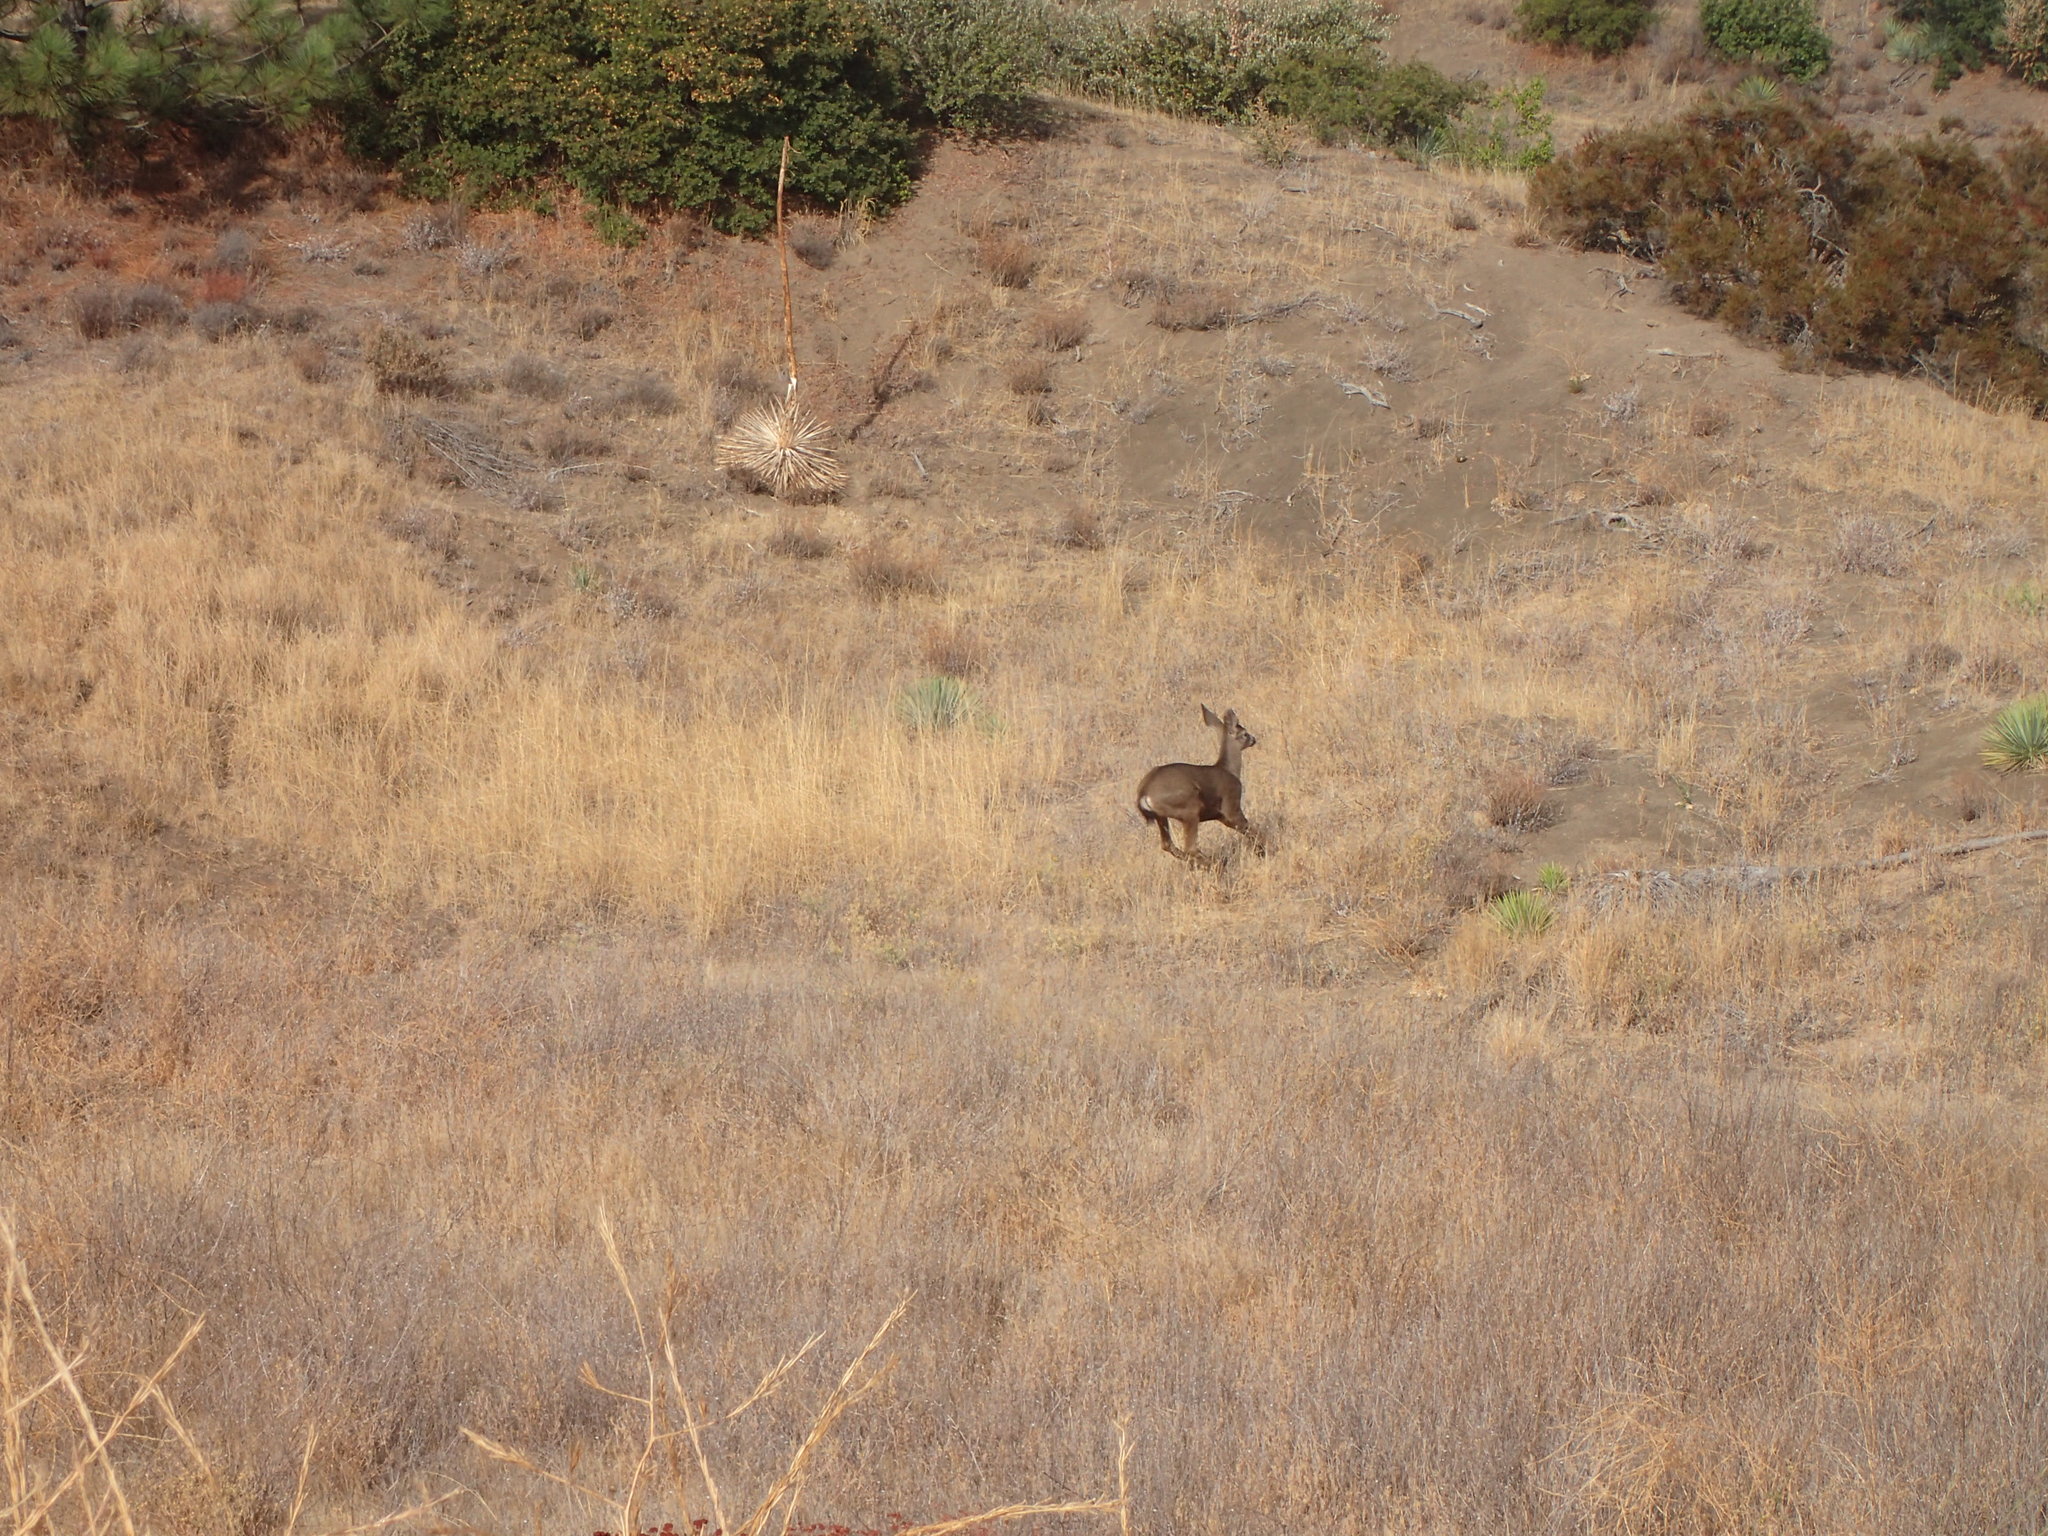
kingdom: Animalia
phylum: Chordata
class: Mammalia
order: Artiodactyla
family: Cervidae
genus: Odocoileus
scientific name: Odocoileus hemionus
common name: Mule deer
